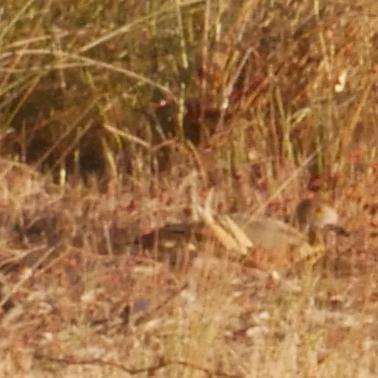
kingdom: Animalia
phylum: Chordata
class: Aves
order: Anseriformes
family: Anatidae
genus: Dendrocygna
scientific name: Dendrocygna eytoni
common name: Plumed whistling-duck
